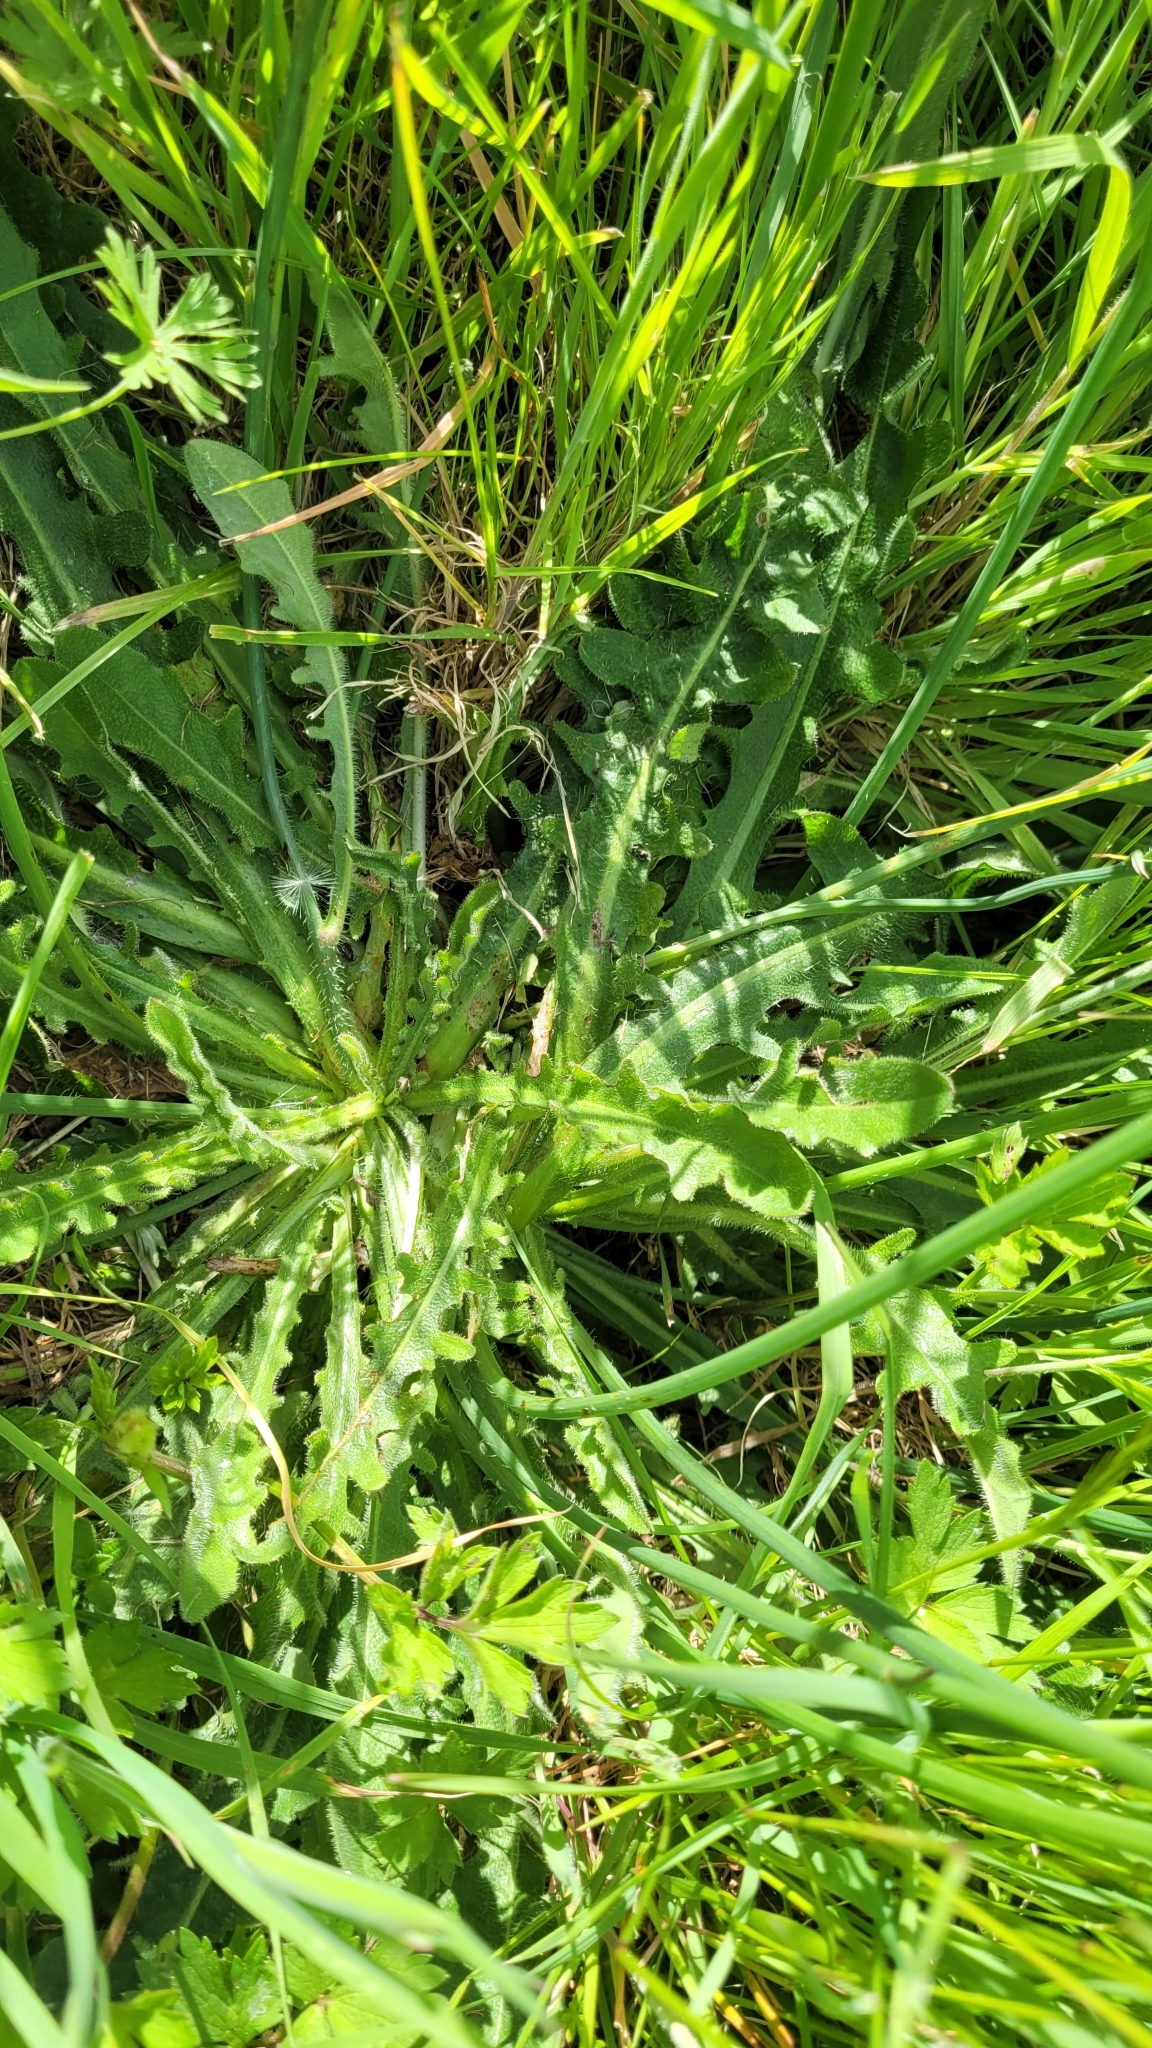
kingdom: Plantae
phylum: Tracheophyta
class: Magnoliopsida
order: Asterales
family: Asteraceae
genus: Hypochaeris
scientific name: Hypochaeris radicata
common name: Flatweed
